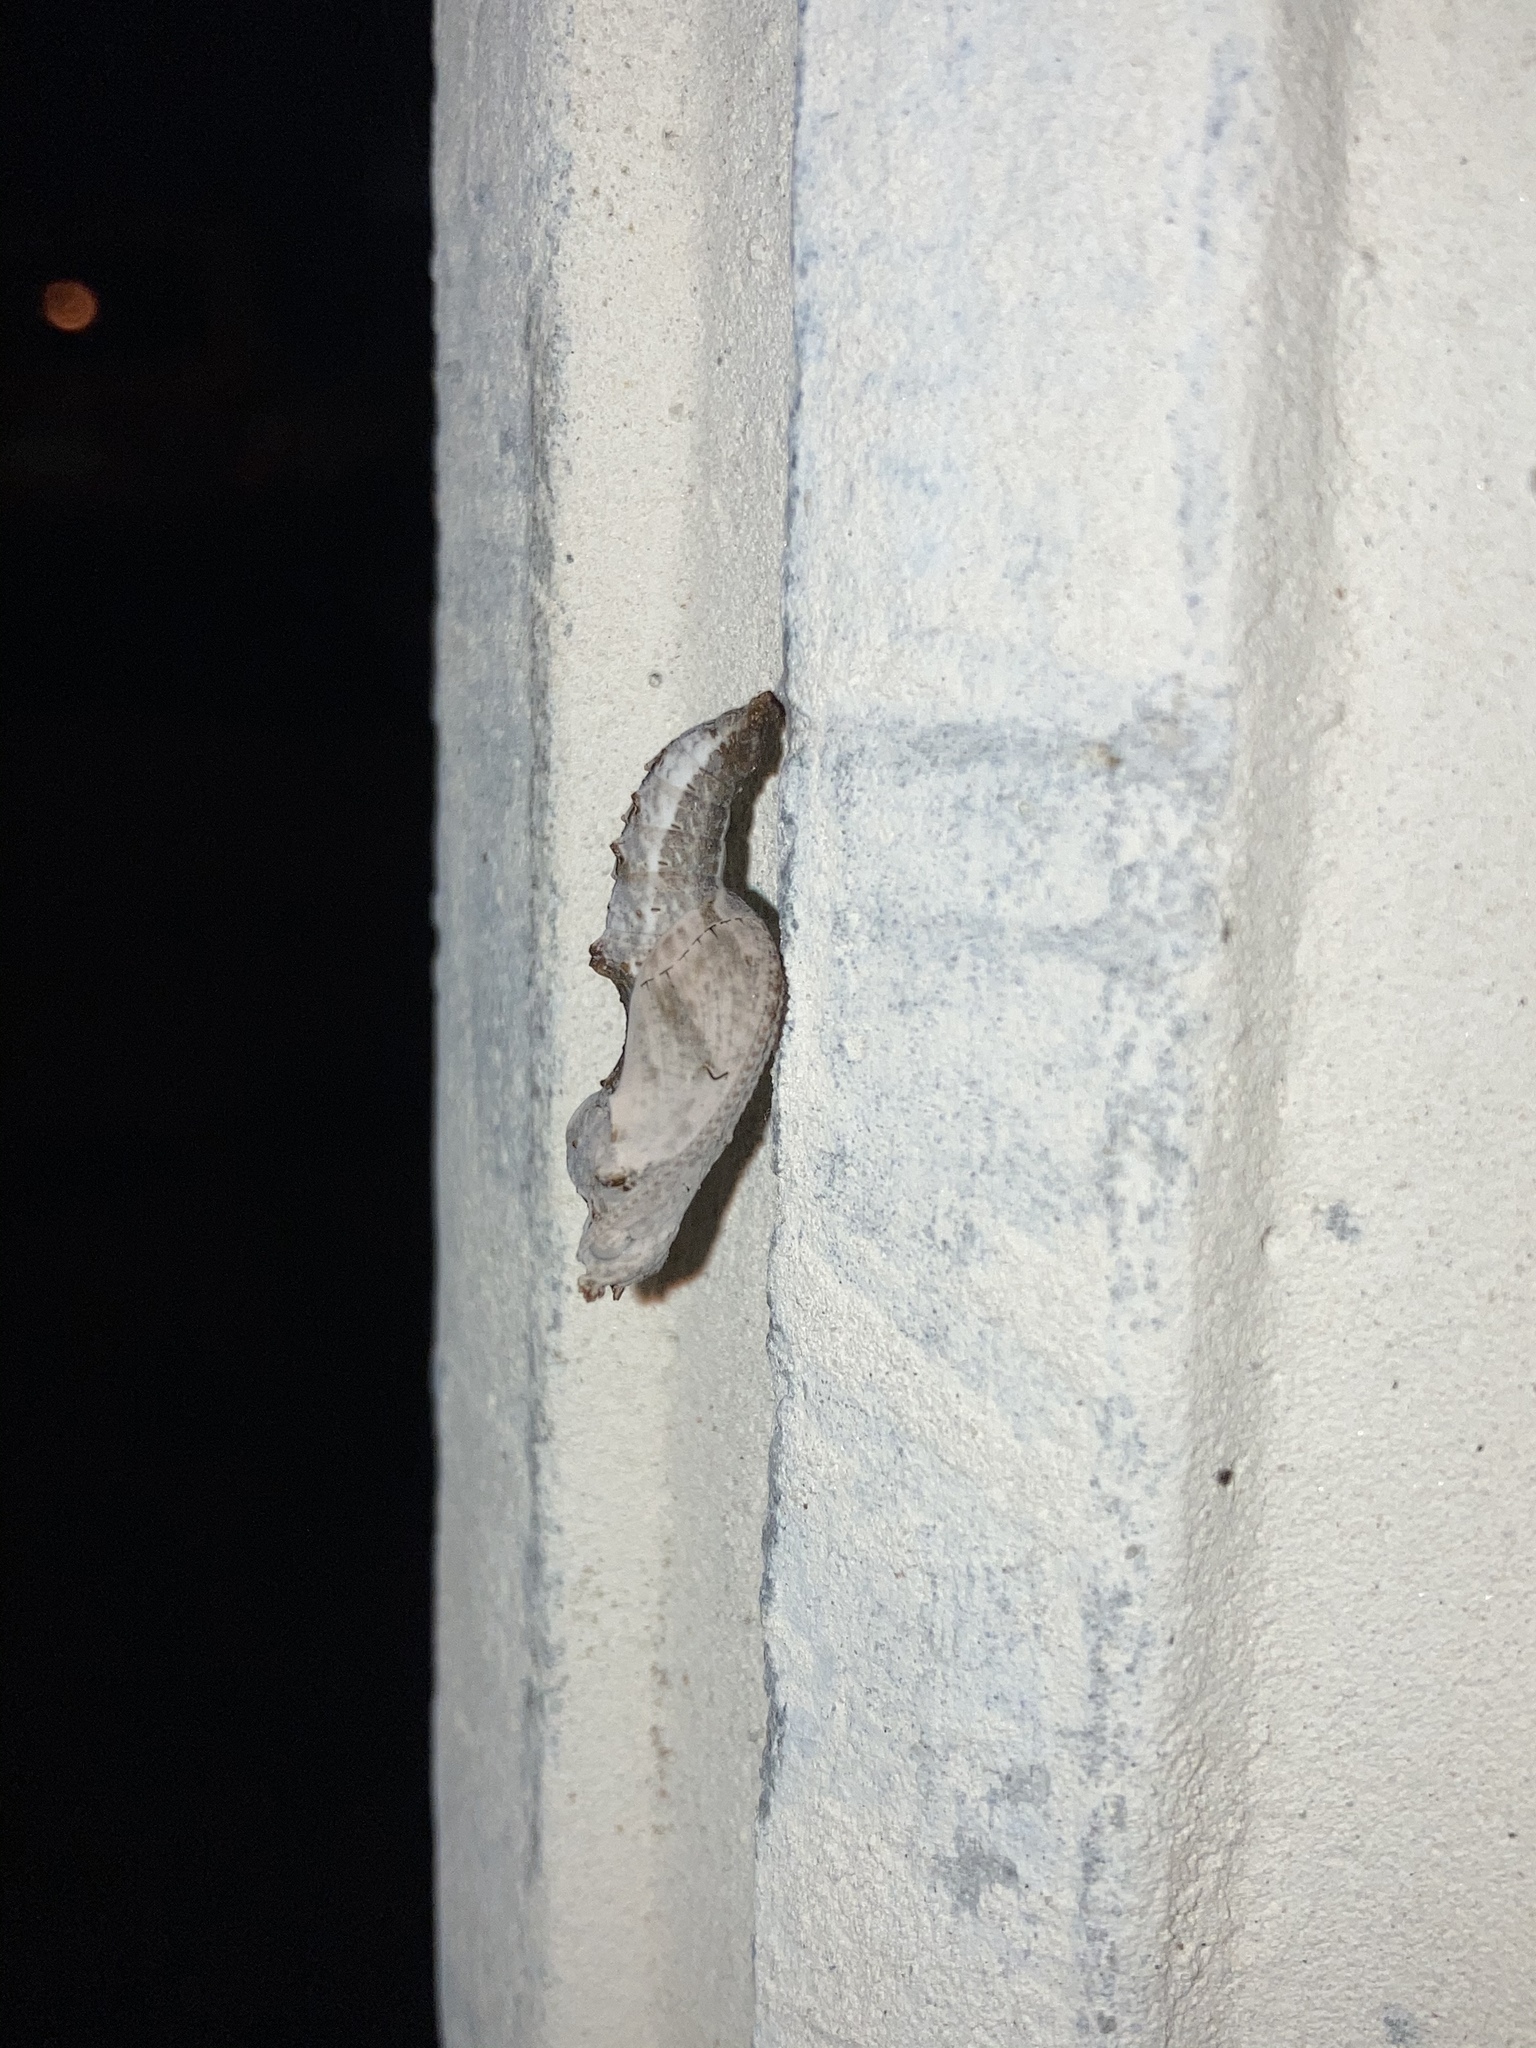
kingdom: Animalia
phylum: Arthropoda
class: Insecta
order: Lepidoptera
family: Nymphalidae
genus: Dione
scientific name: Dione vanillae
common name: Gulf fritillary
